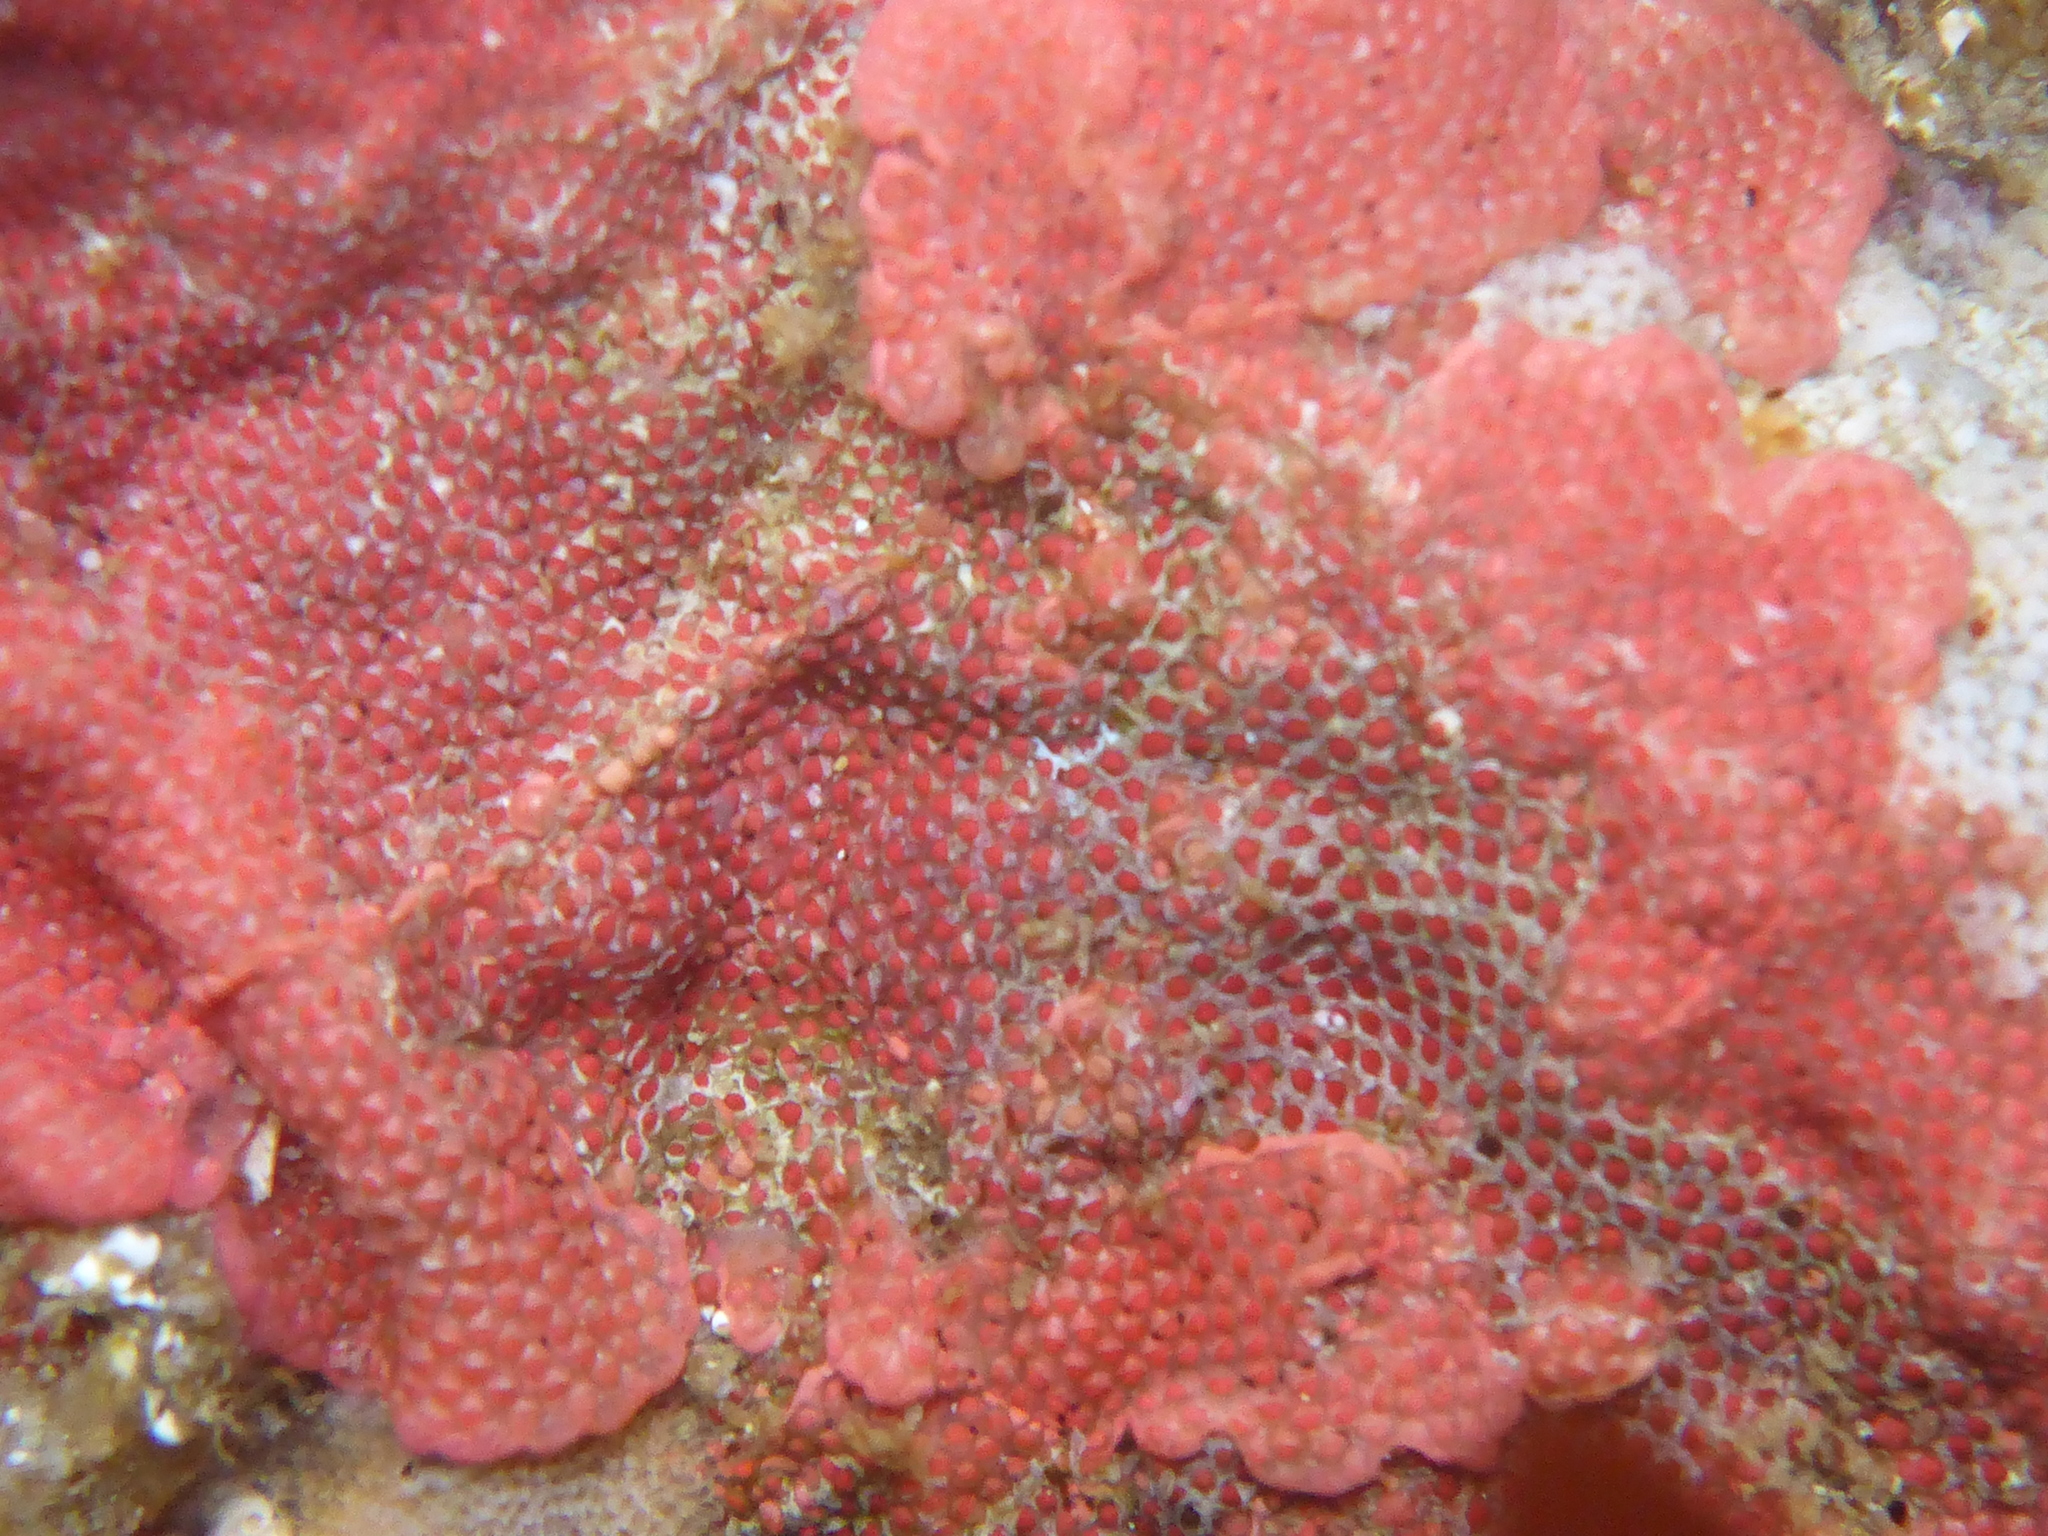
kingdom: Animalia
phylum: Bryozoa
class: Gymnolaemata
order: Cheilostomatida
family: Eurystomellidae
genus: Integripelta
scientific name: Integripelta bilabiata
